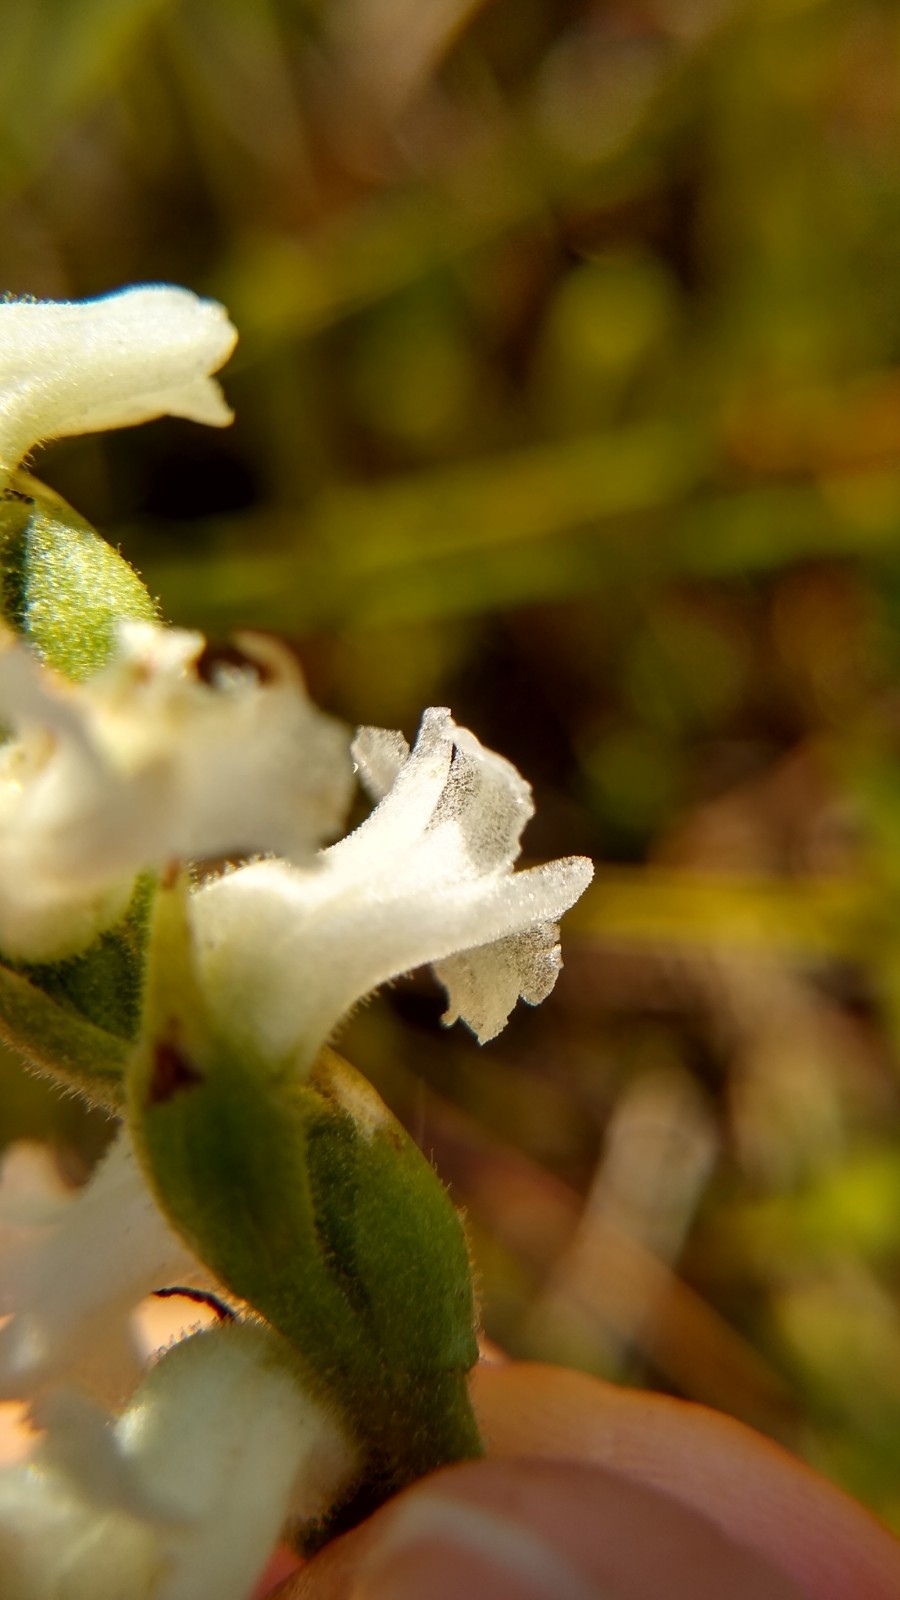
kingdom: Plantae
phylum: Tracheophyta
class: Liliopsida
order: Asparagales
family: Orchidaceae
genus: Spiranthes
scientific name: Spiranthes arcisepala
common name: Appalachian ladies'-tresses
